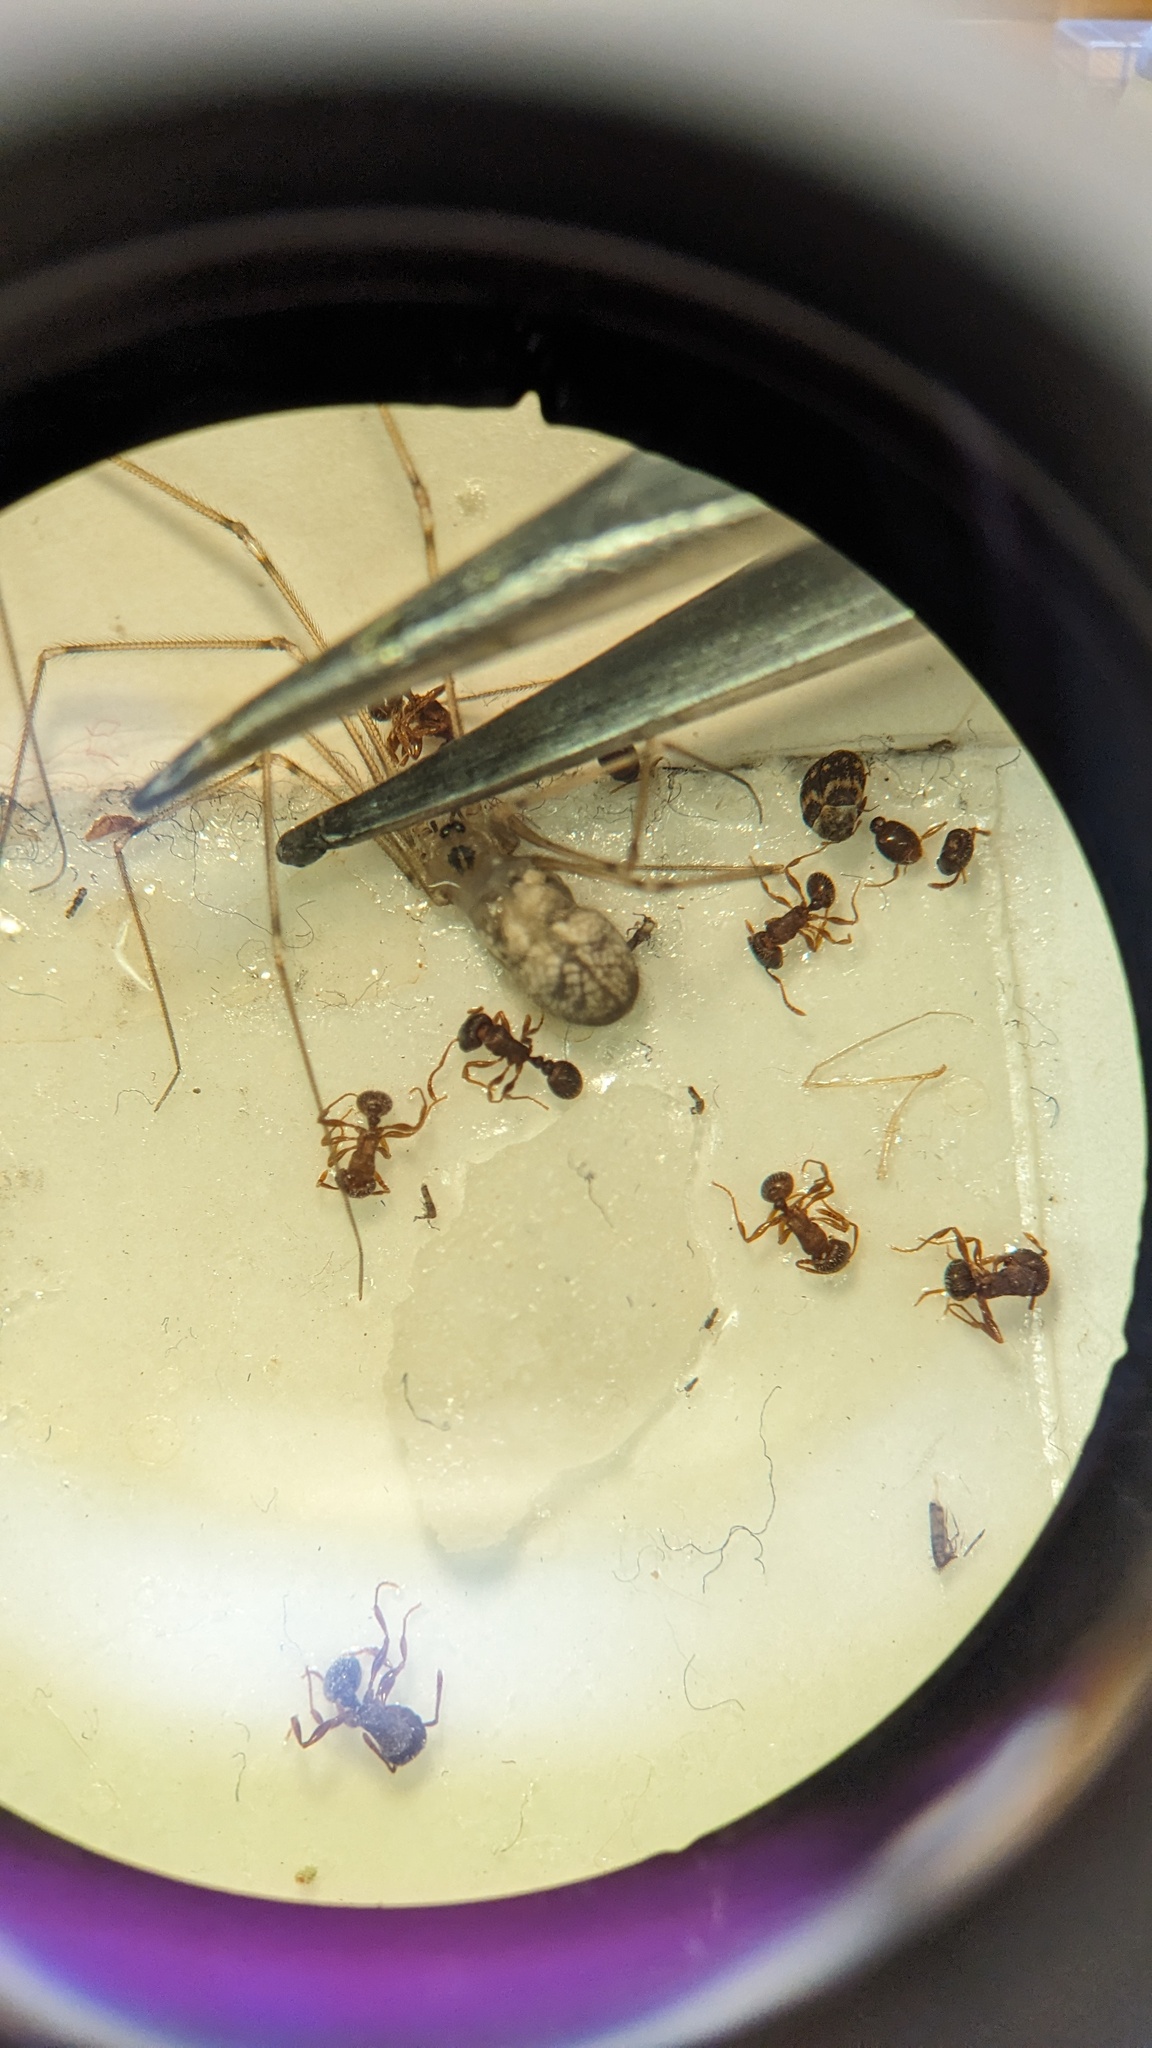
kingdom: Animalia
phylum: Arthropoda
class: Arachnida
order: Araneae
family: Pholcidae
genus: Pholcus
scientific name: Pholcus manueli
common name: Cellar spider
